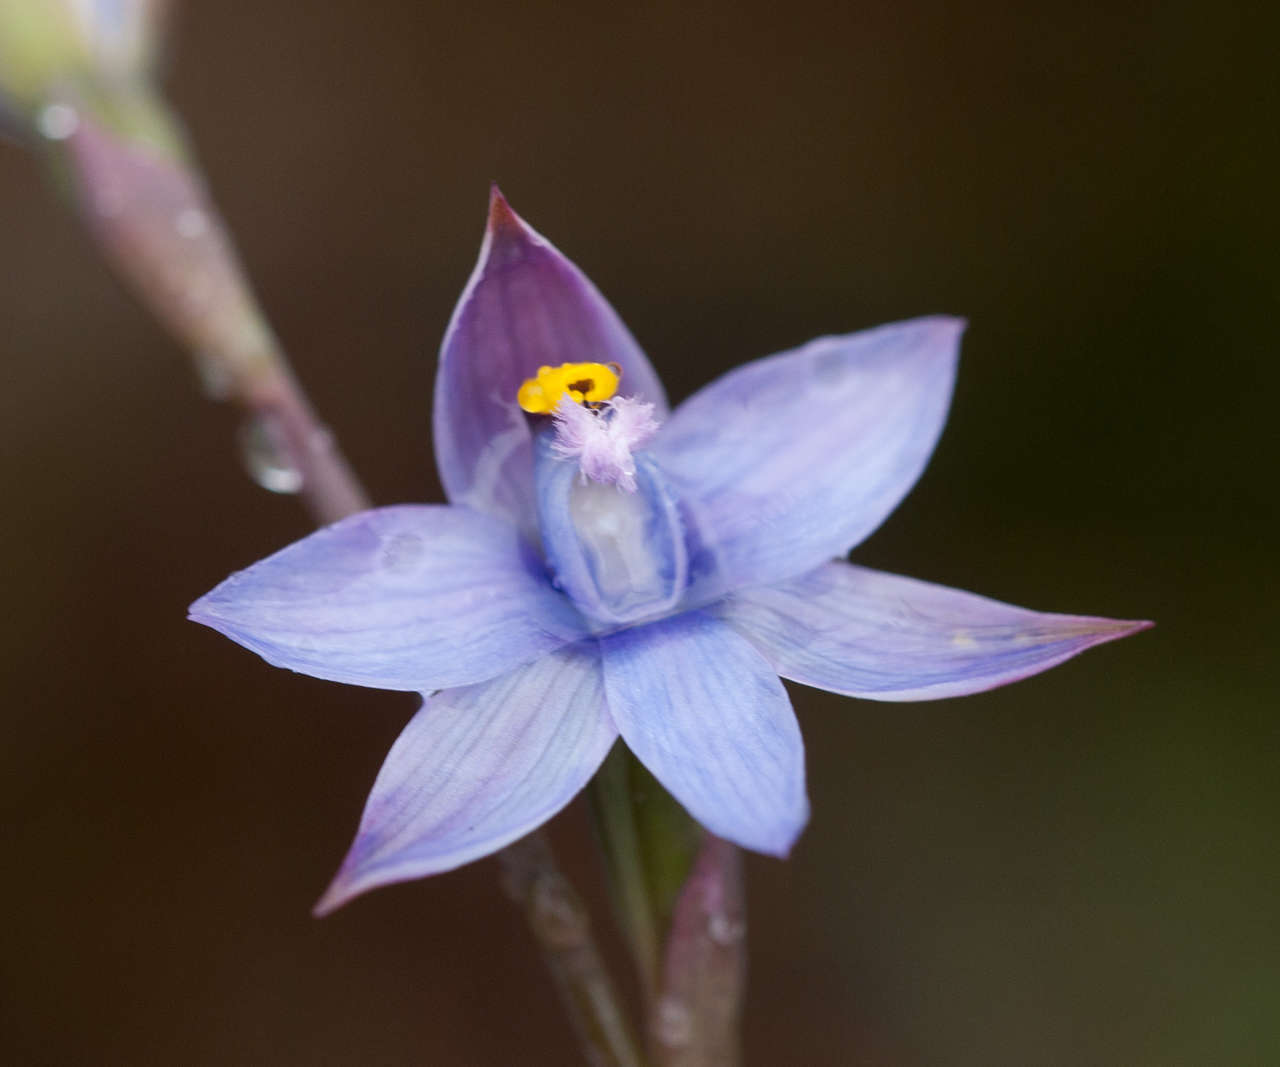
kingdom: Plantae
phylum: Tracheophyta
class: Liliopsida
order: Asparagales
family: Orchidaceae
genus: Thelymitra
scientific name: Thelymitra malvina
